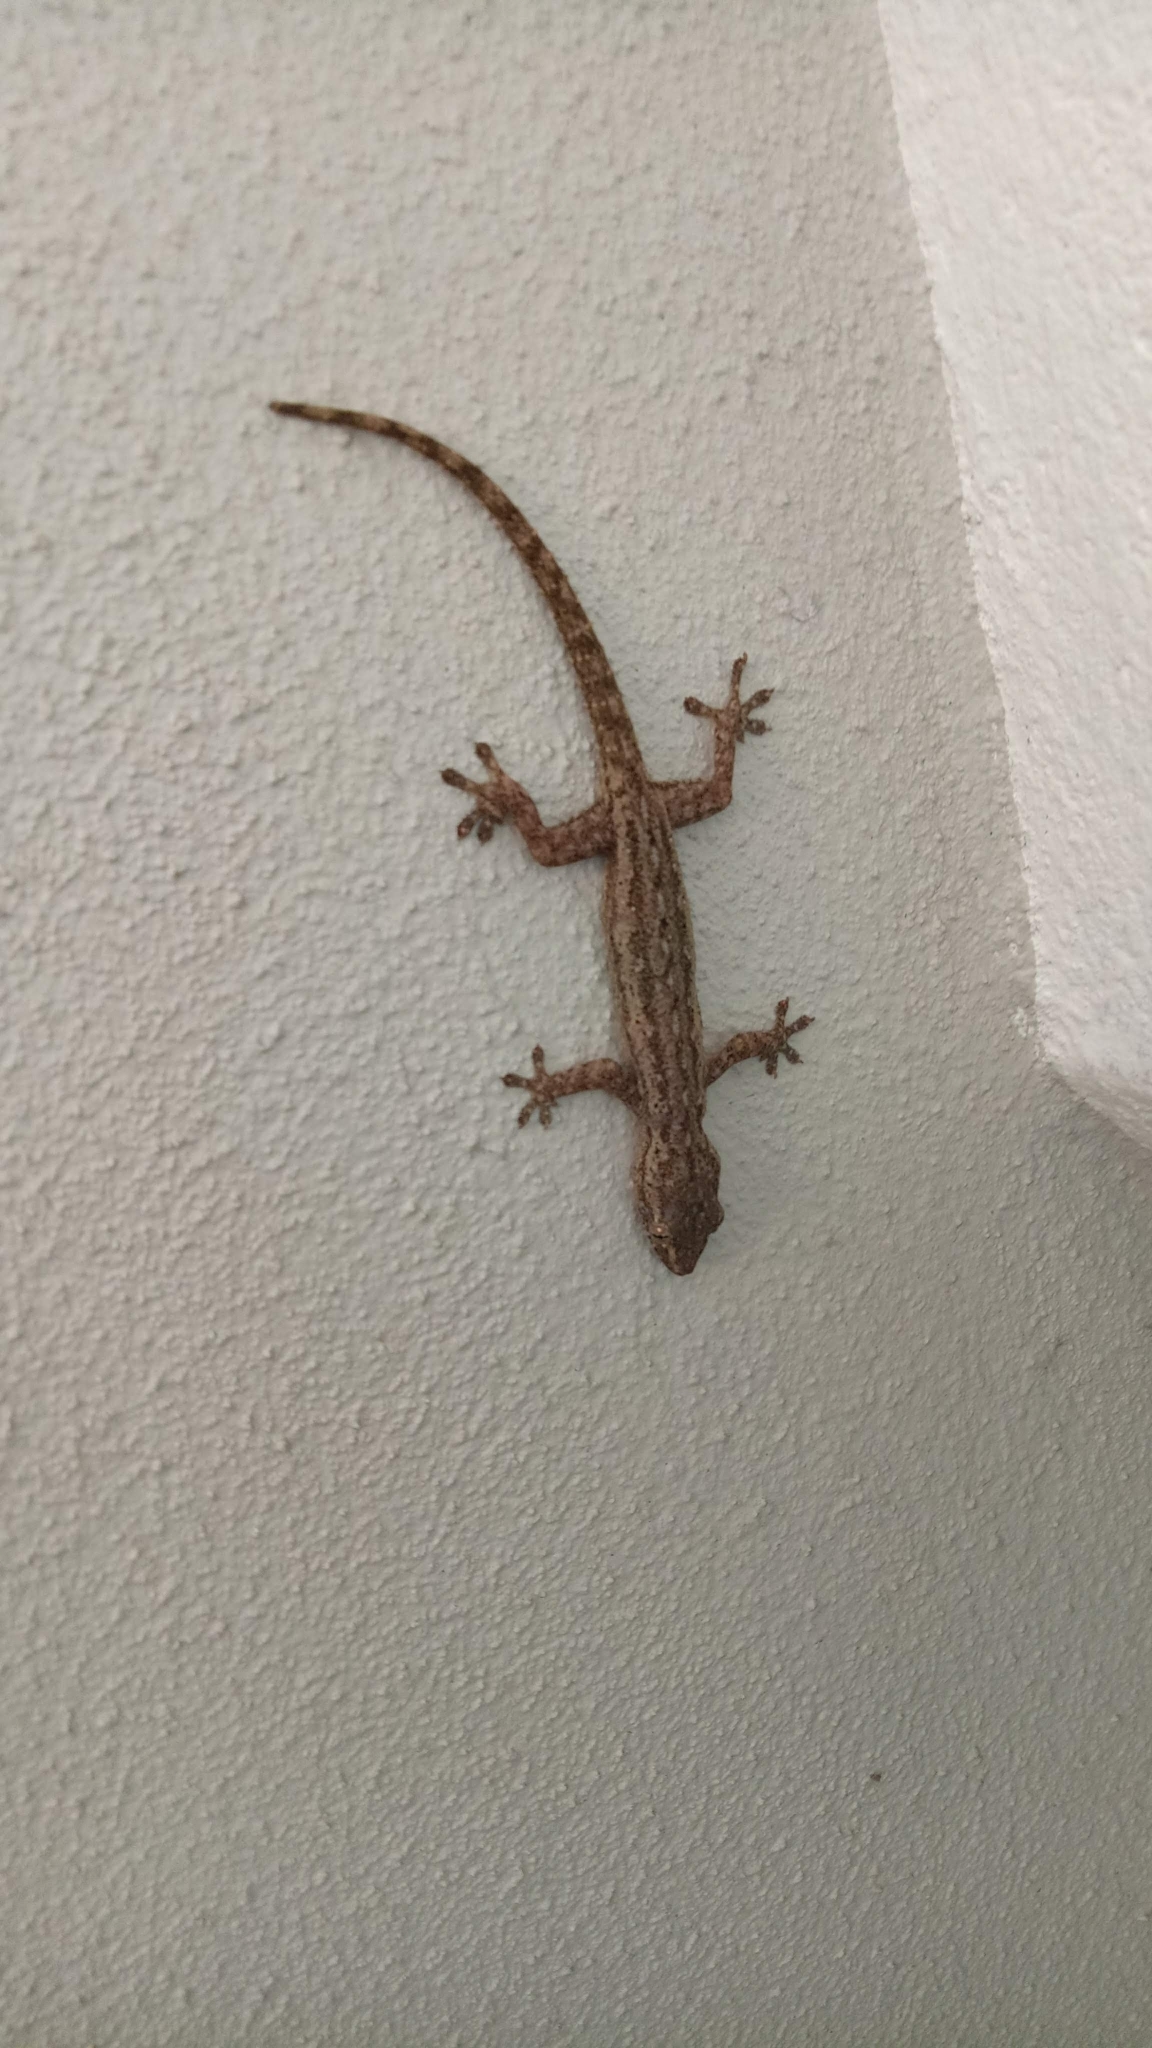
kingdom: Animalia
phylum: Chordata
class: Squamata
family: Gekkonidae
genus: Hemidactylus
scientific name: Hemidactylus frenatus
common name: Common house gecko
